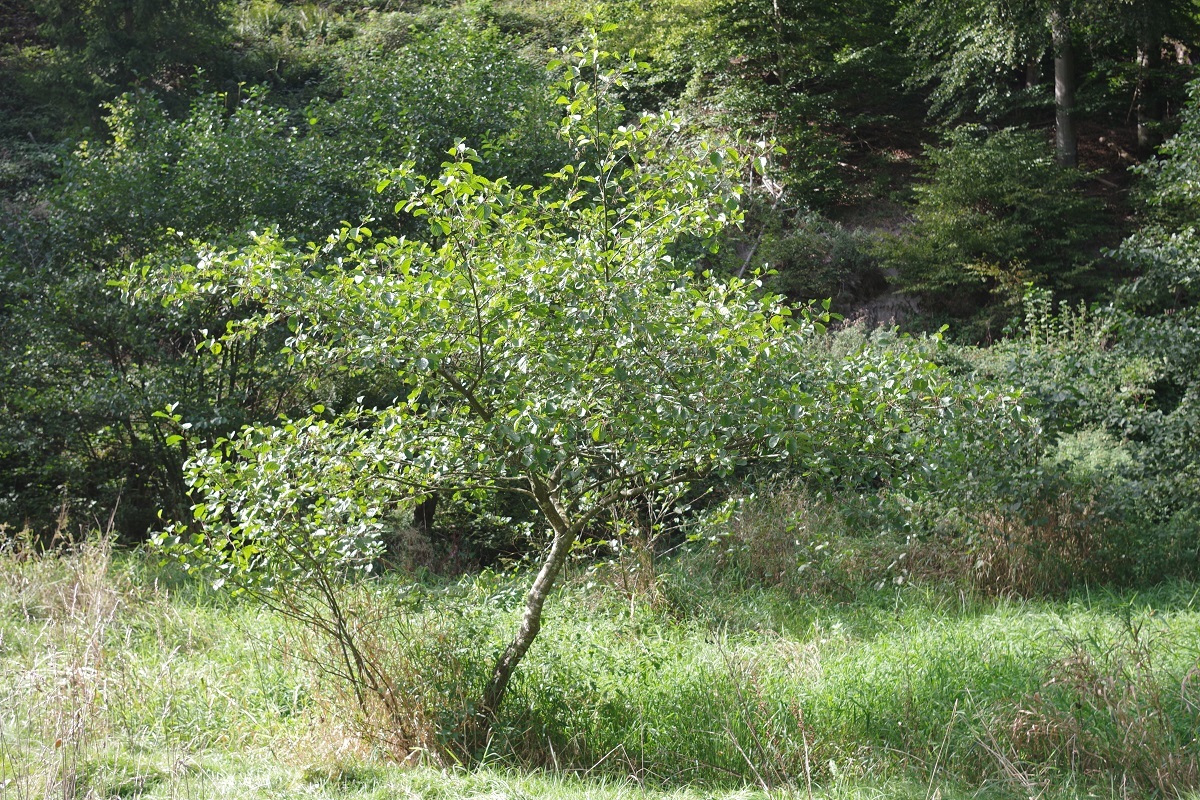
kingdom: Plantae
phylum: Tracheophyta
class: Magnoliopsida
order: Fagales
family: Betulaceae
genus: Alnus
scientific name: Alnus glutinosa
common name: Black alder
